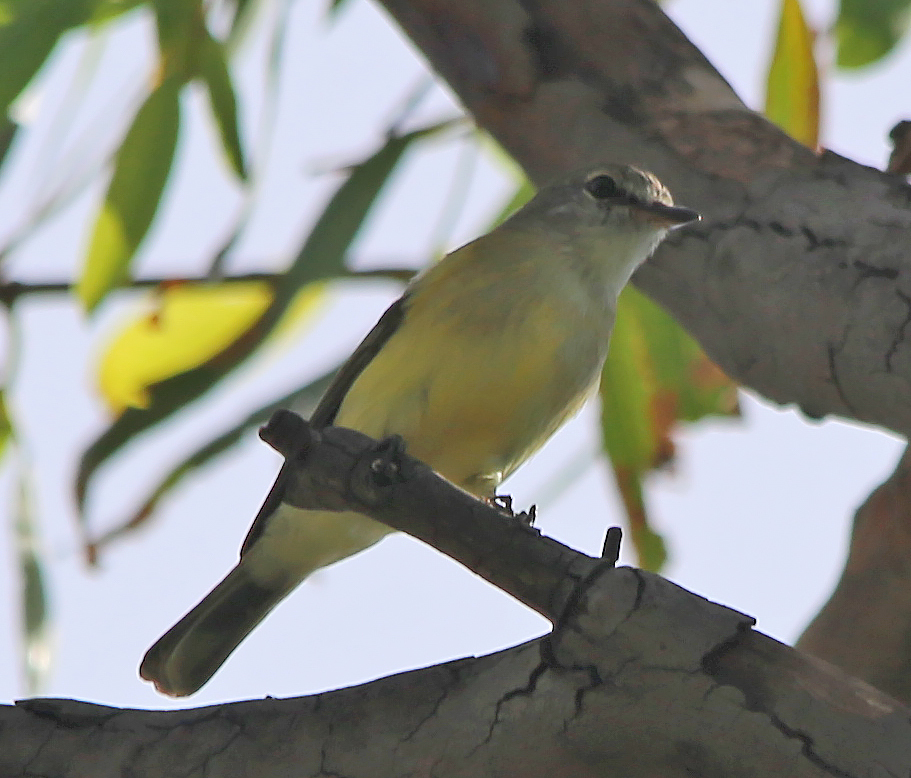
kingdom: Animalia
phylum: Chordata
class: Aves
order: Passeriformes
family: Petroicidae
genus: Microeca
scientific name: Microeca flavigaster
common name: Lemon-bellied flyrobin
